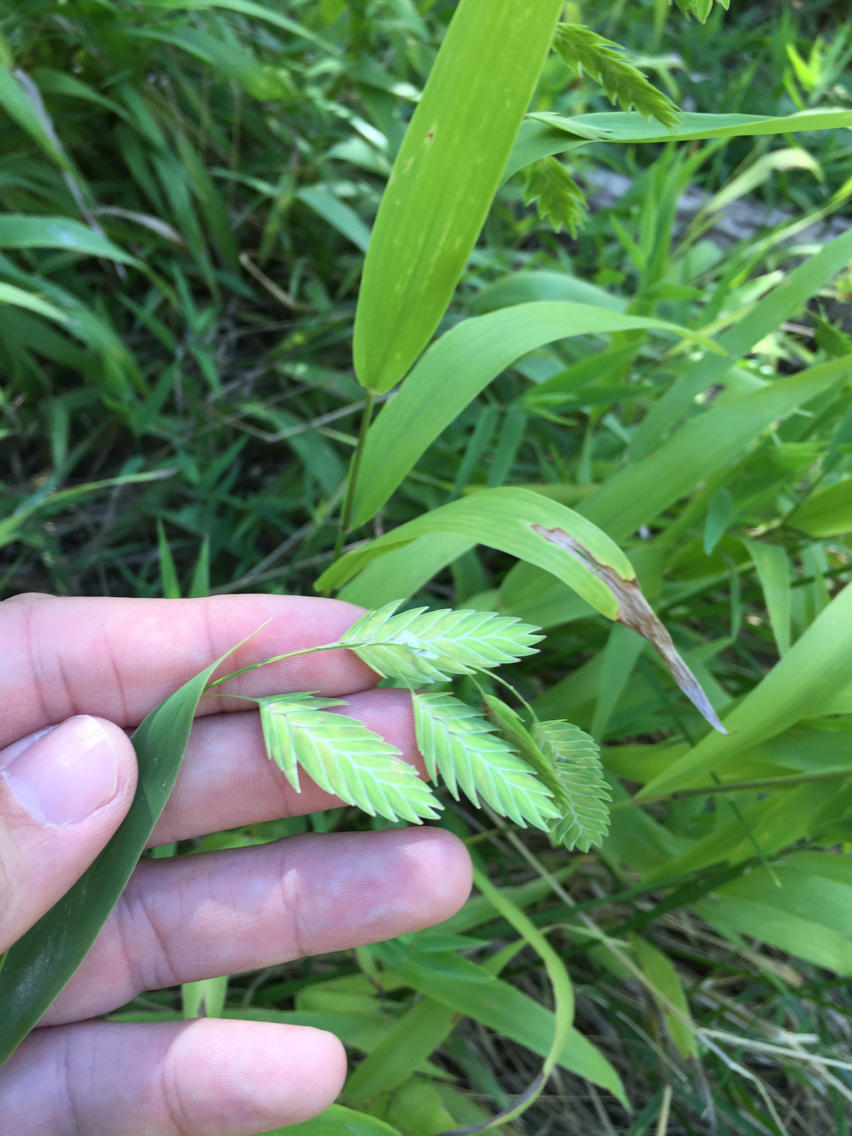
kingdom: Plantae
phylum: Tracheophyta
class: Liliopsida
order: Poales
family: Poaceae
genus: Chasmanthium
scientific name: Chasmanthium latifolium
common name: Broad-leaved chasmanthium
